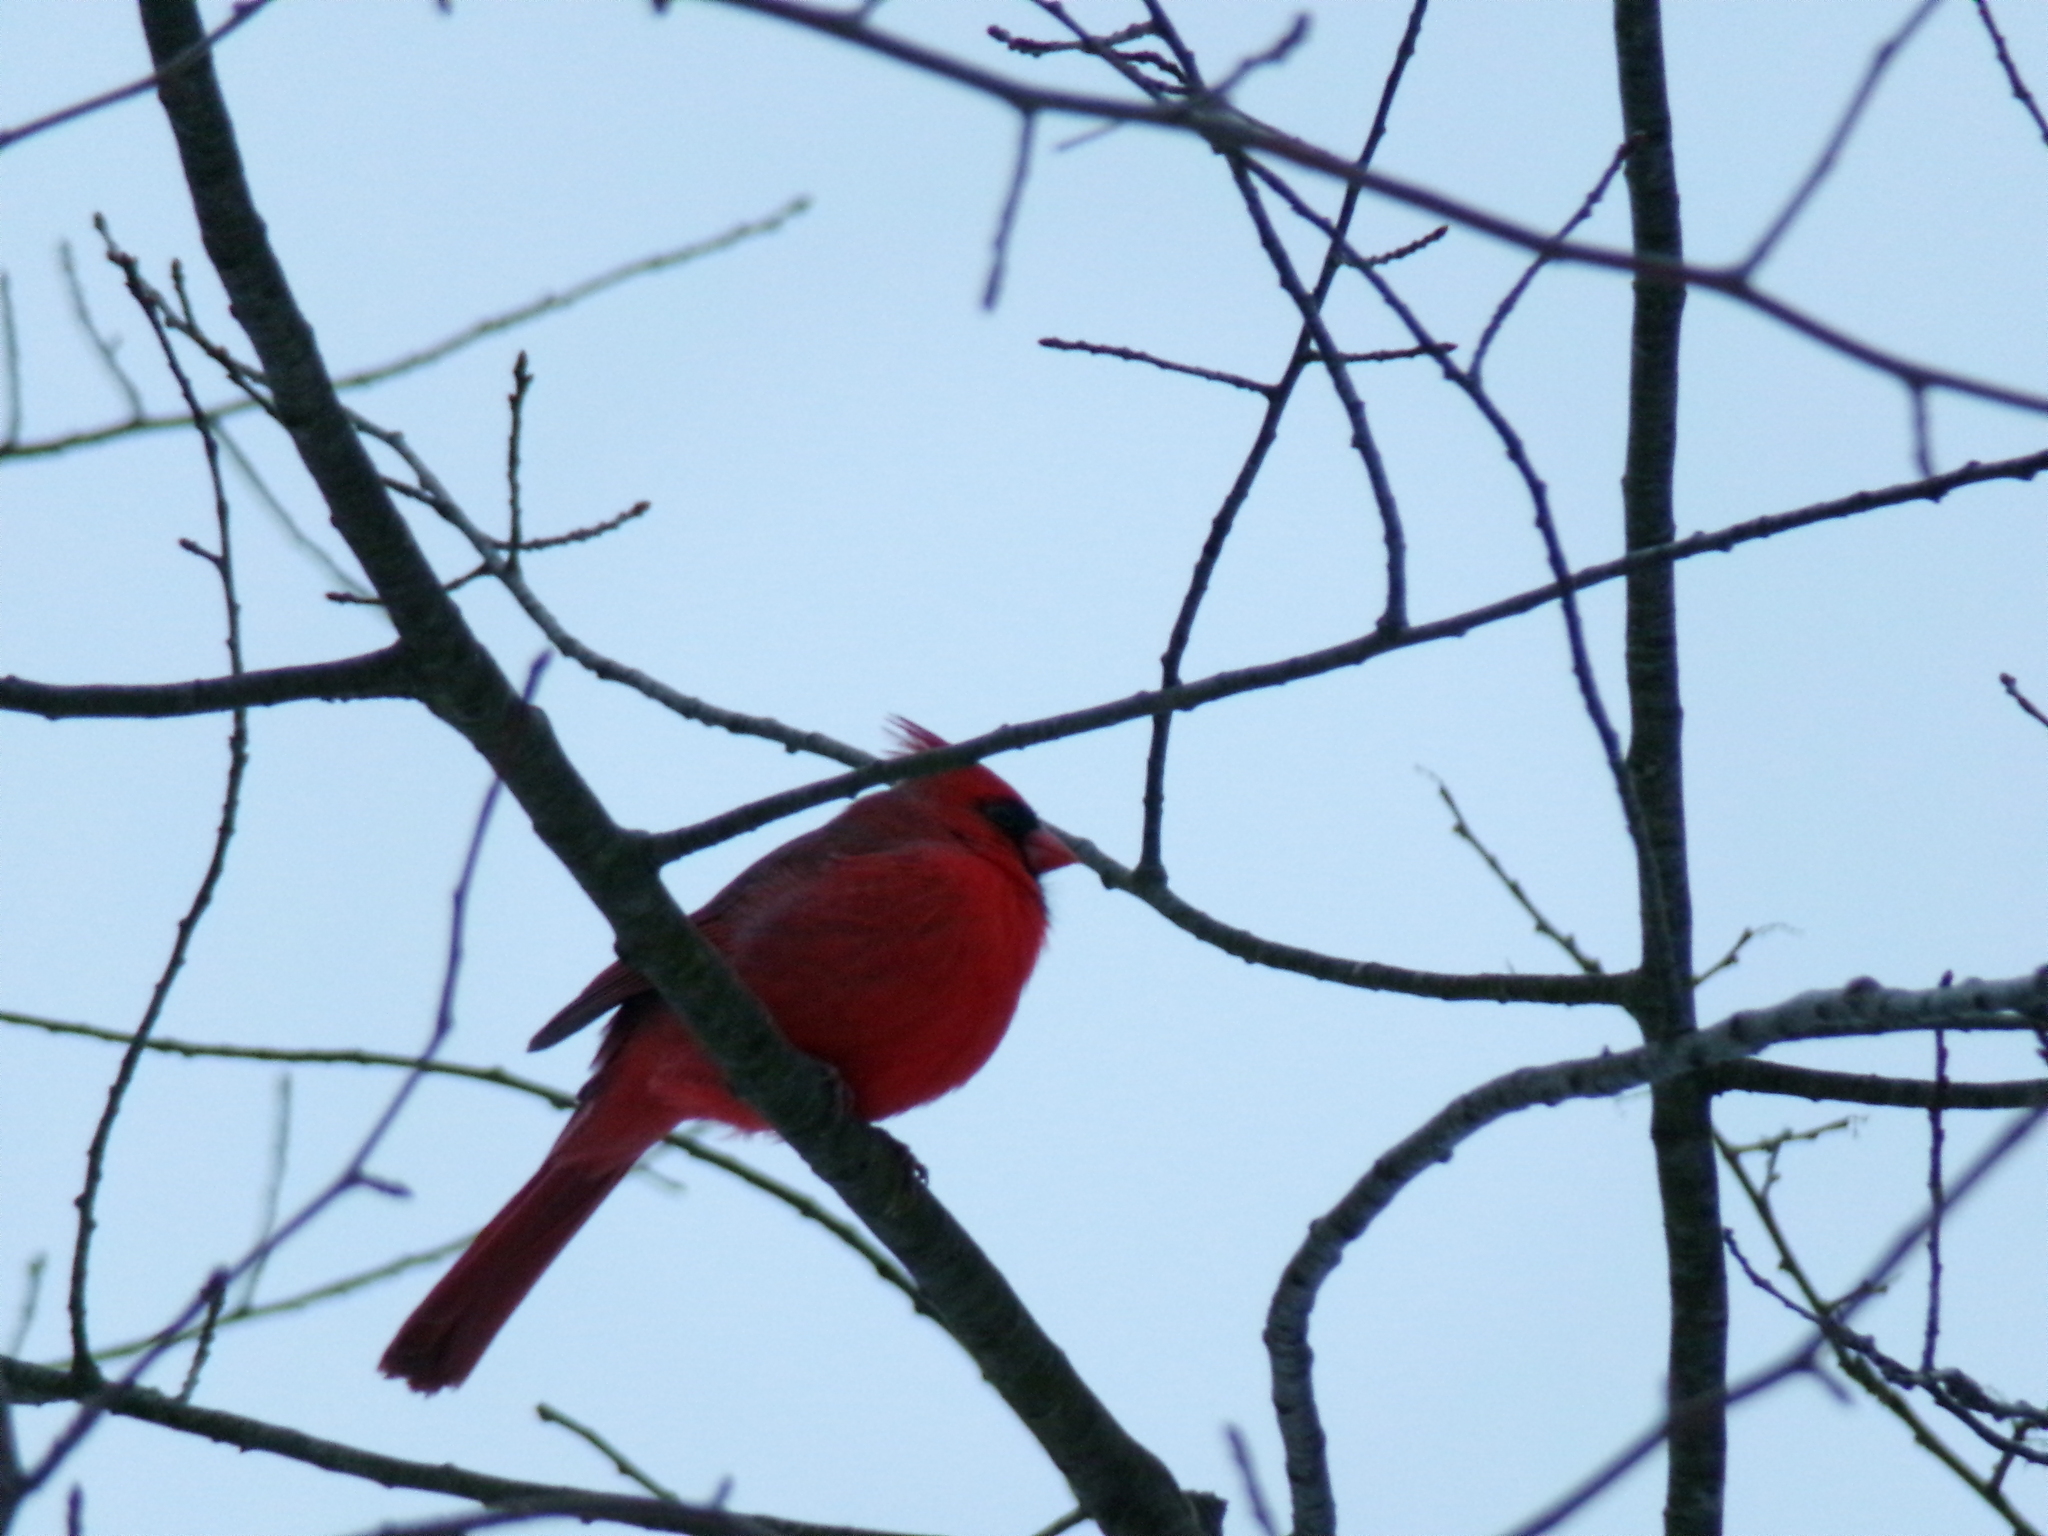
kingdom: Animalia
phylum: Chordata
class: Aves
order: Passeriformes
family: Cardinalidae
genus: Cardinalis
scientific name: Cardinalis cardinalis
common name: Northern cardinal
